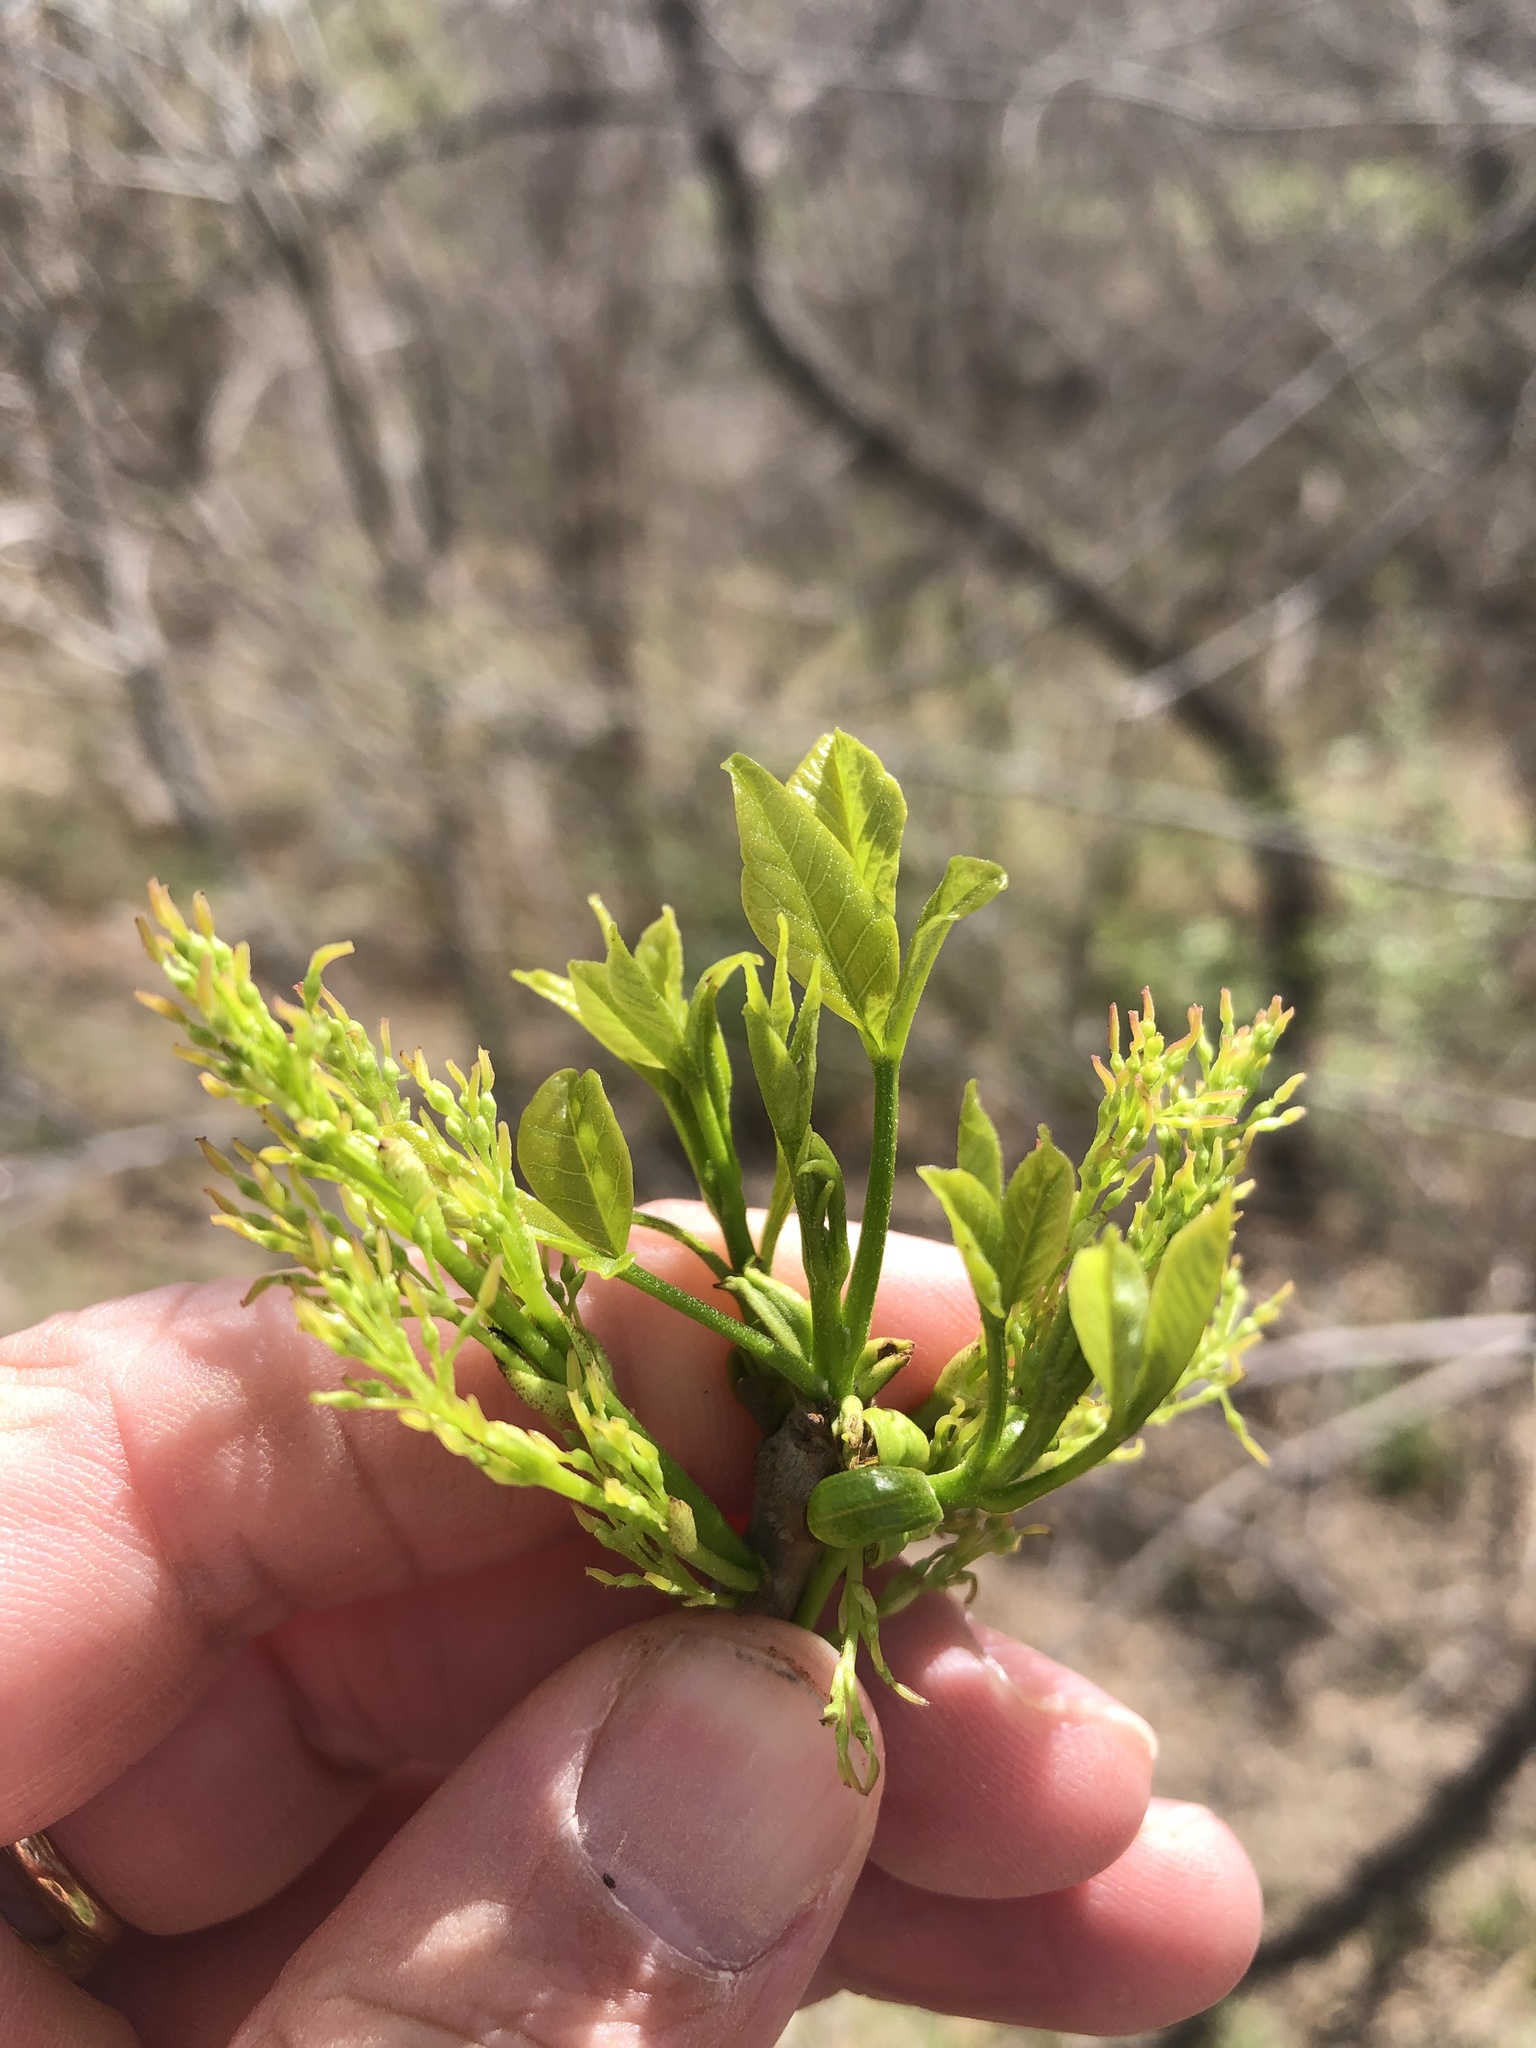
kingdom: Plantae
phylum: Tracheophyta
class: Magnoliopsida
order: Lamiales
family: Oleaceae
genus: Fraxinus
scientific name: Fraxinus pennsylvanica
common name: Green ash
